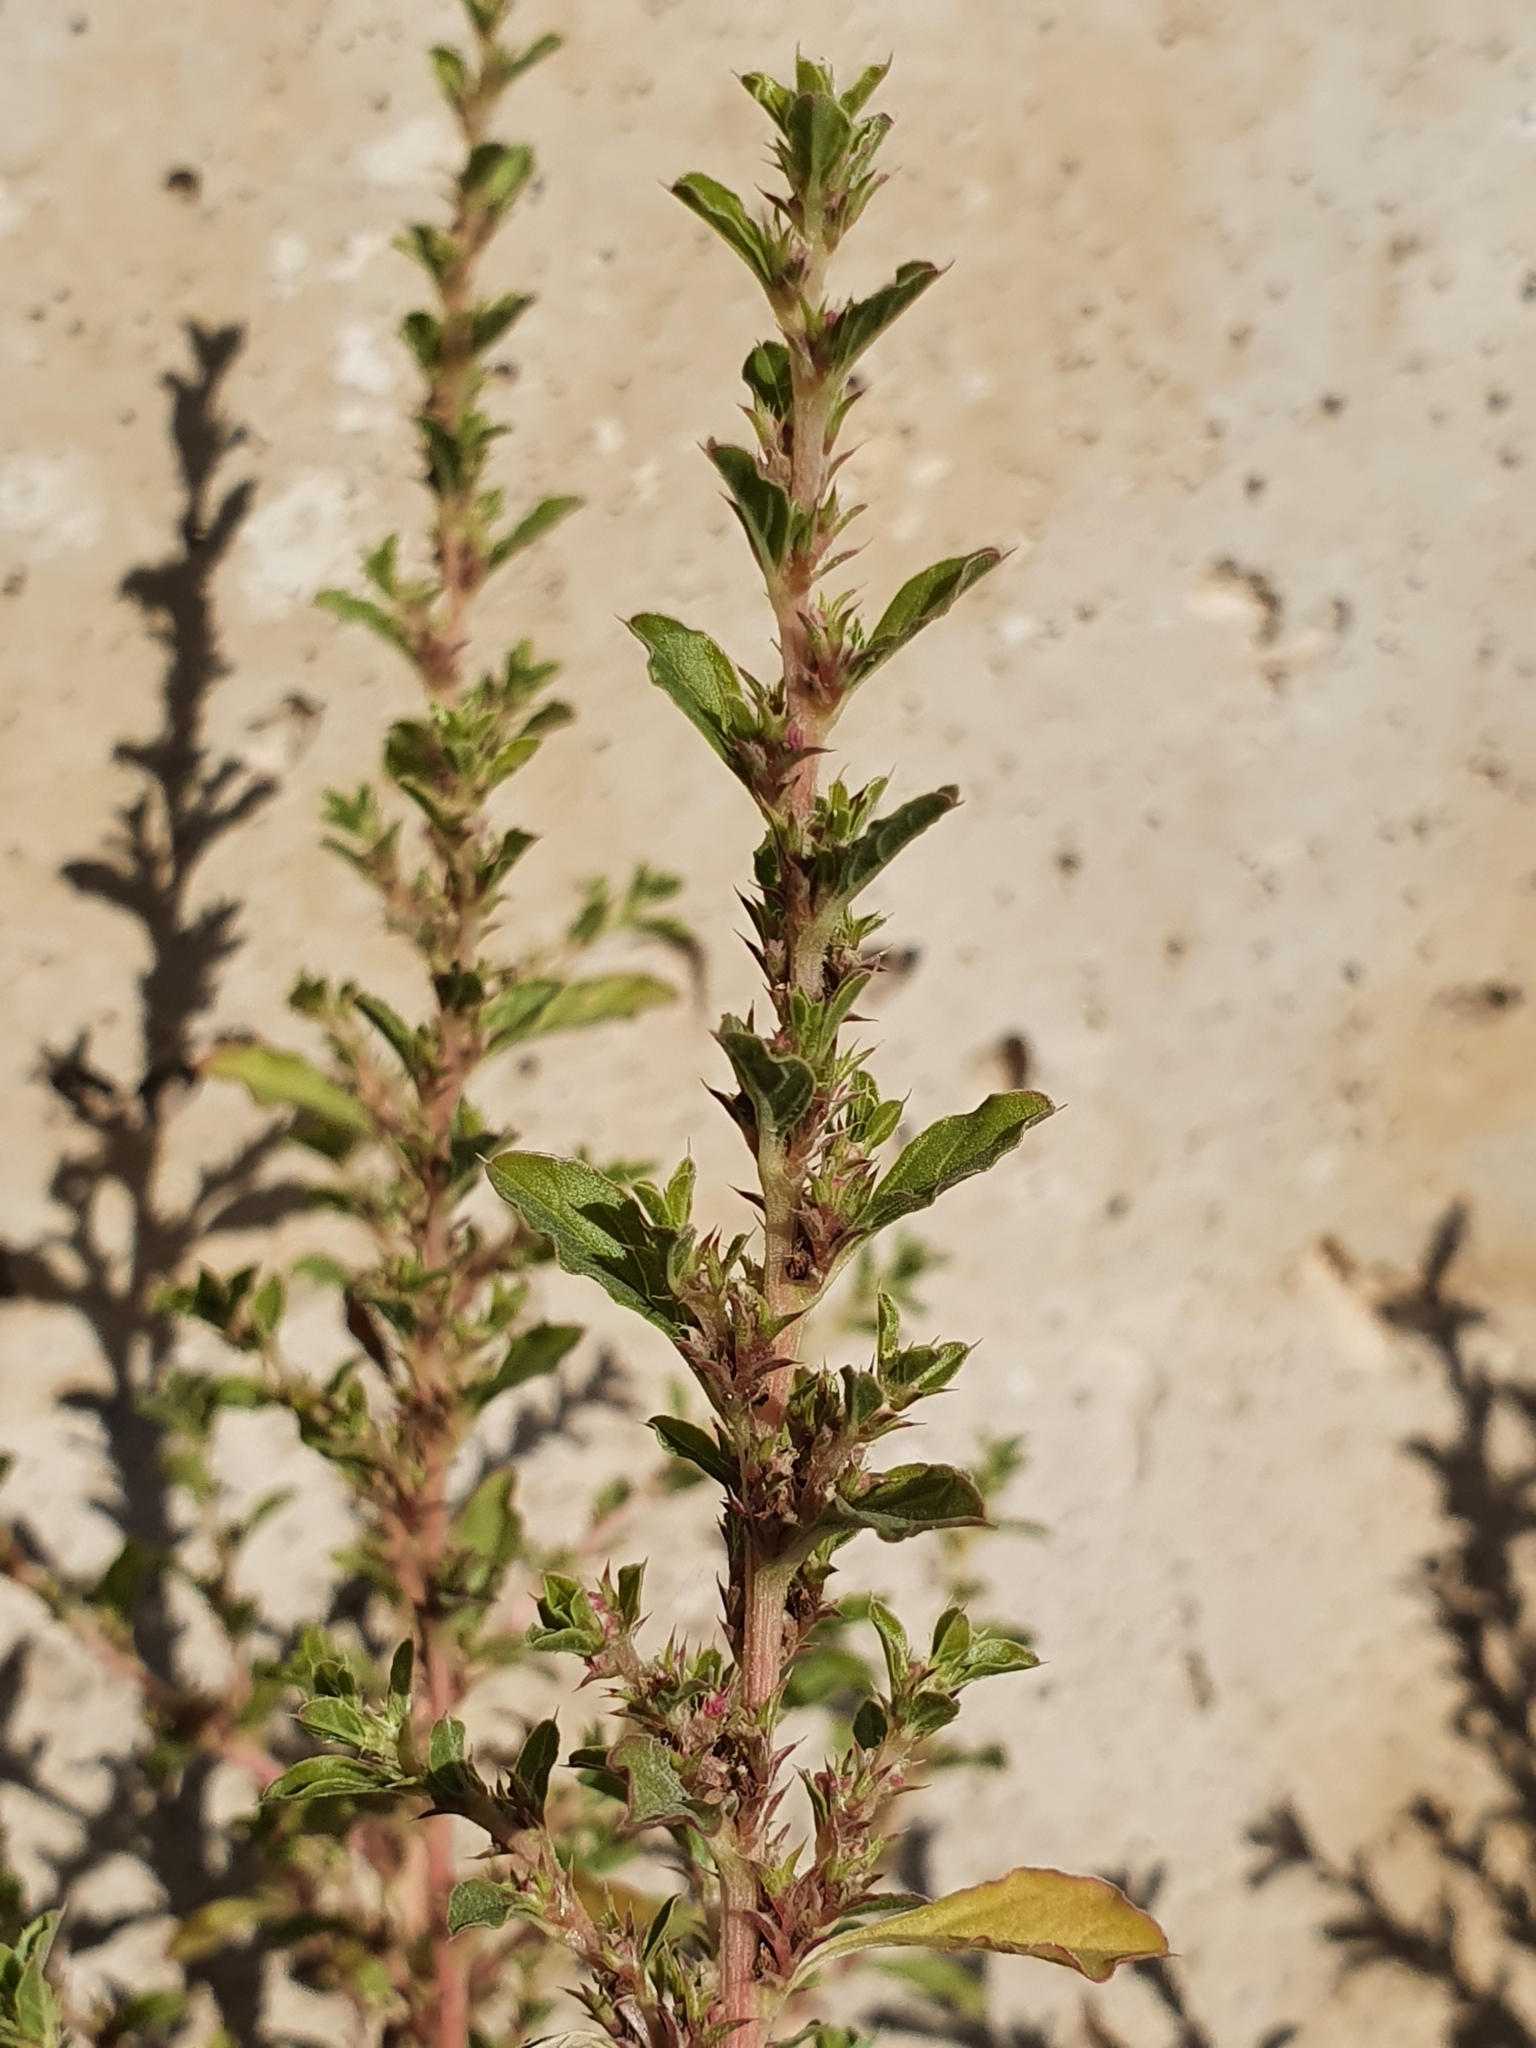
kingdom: Plantae
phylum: Tracheophyta
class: Magnoliopsida
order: Caryophyllales
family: Amaranthaceae
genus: Amaranthus
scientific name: Amaranthus albus
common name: White pigweed
